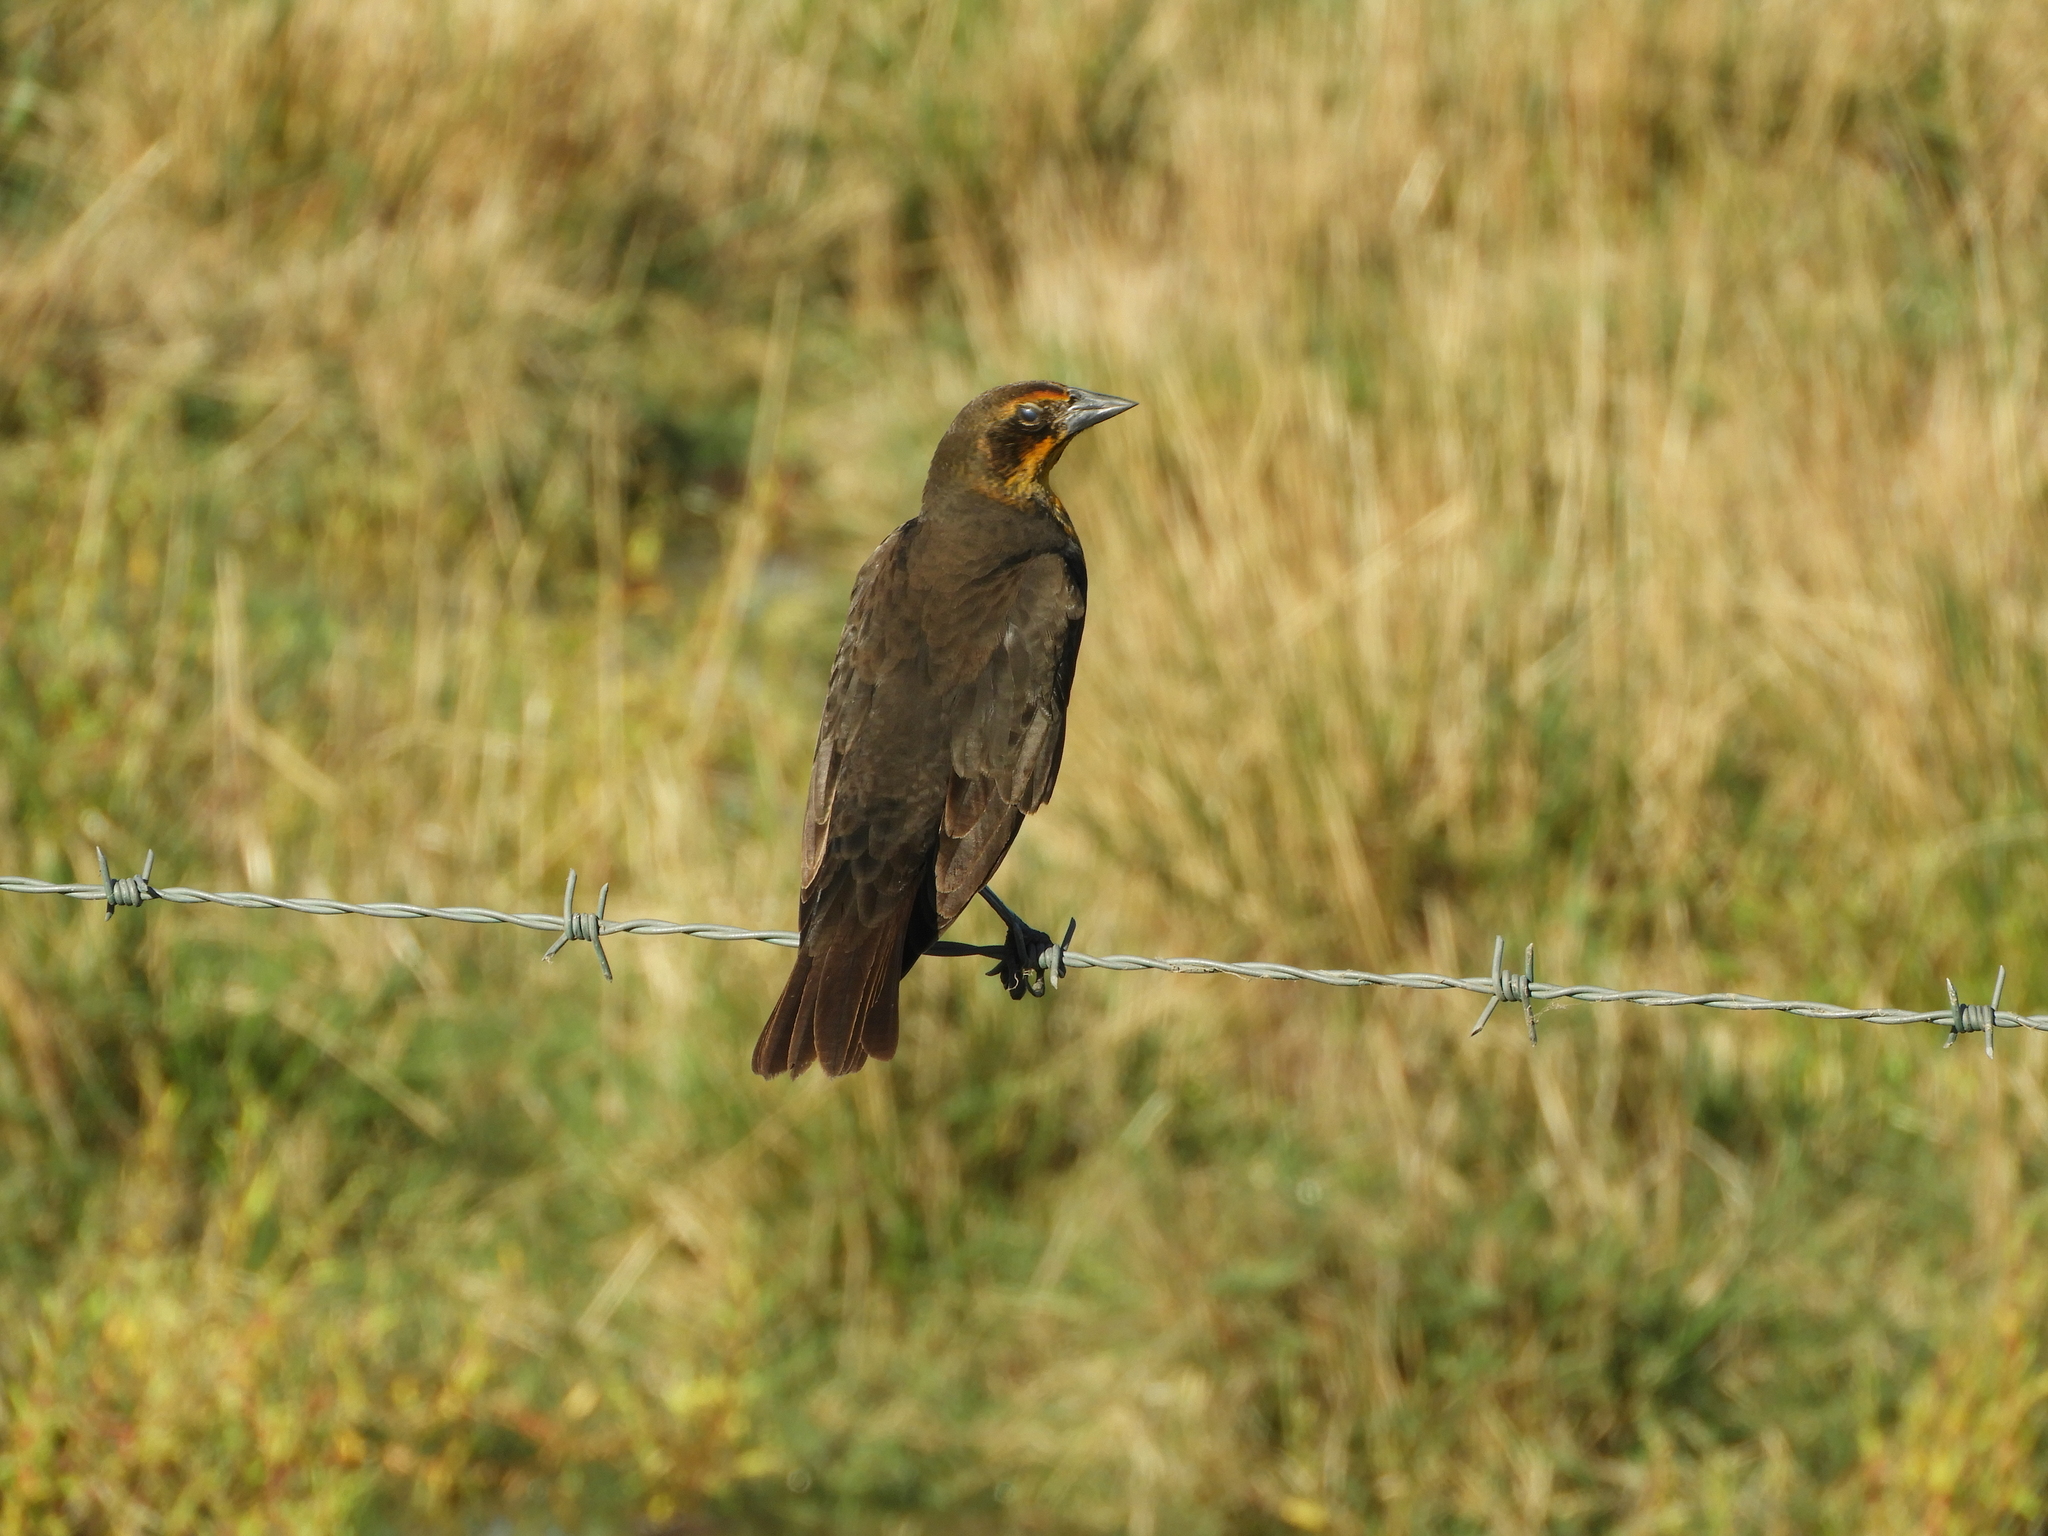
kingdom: Animalia
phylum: Chordata
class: Aves
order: Passeriformes
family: Icteridae
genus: Xanthocephalus
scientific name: Xanthocephalus xanthocephalus
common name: Yellow-headed blackbird
